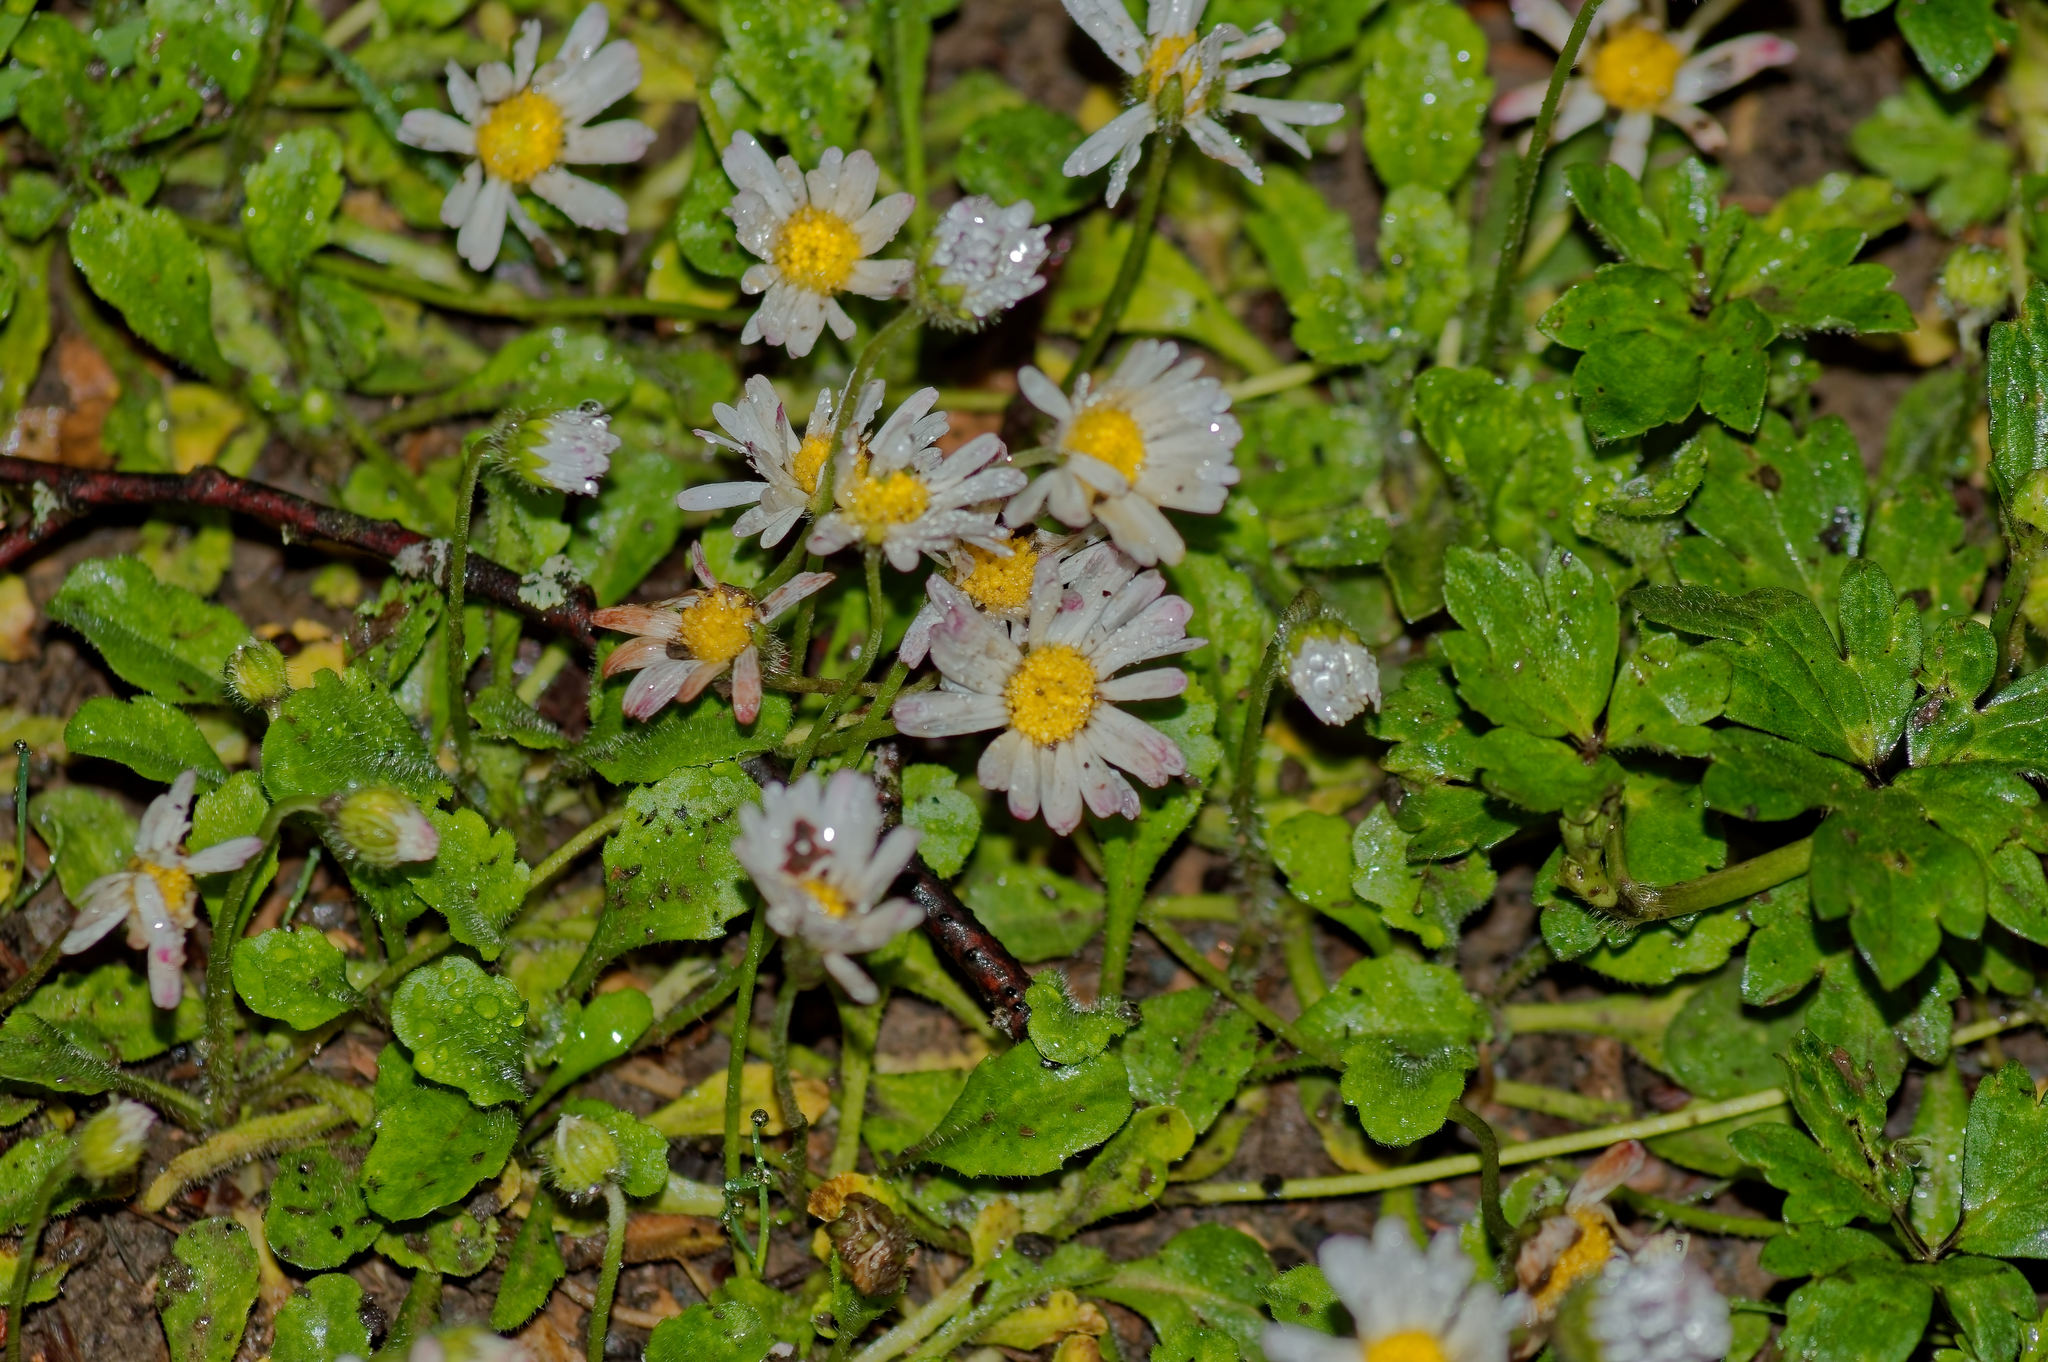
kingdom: Plantae
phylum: Tracheophyta
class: Magnoliopsida
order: Asterales
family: Asteraceae
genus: Bellis
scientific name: Bellis perennis
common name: Lawndaisy
